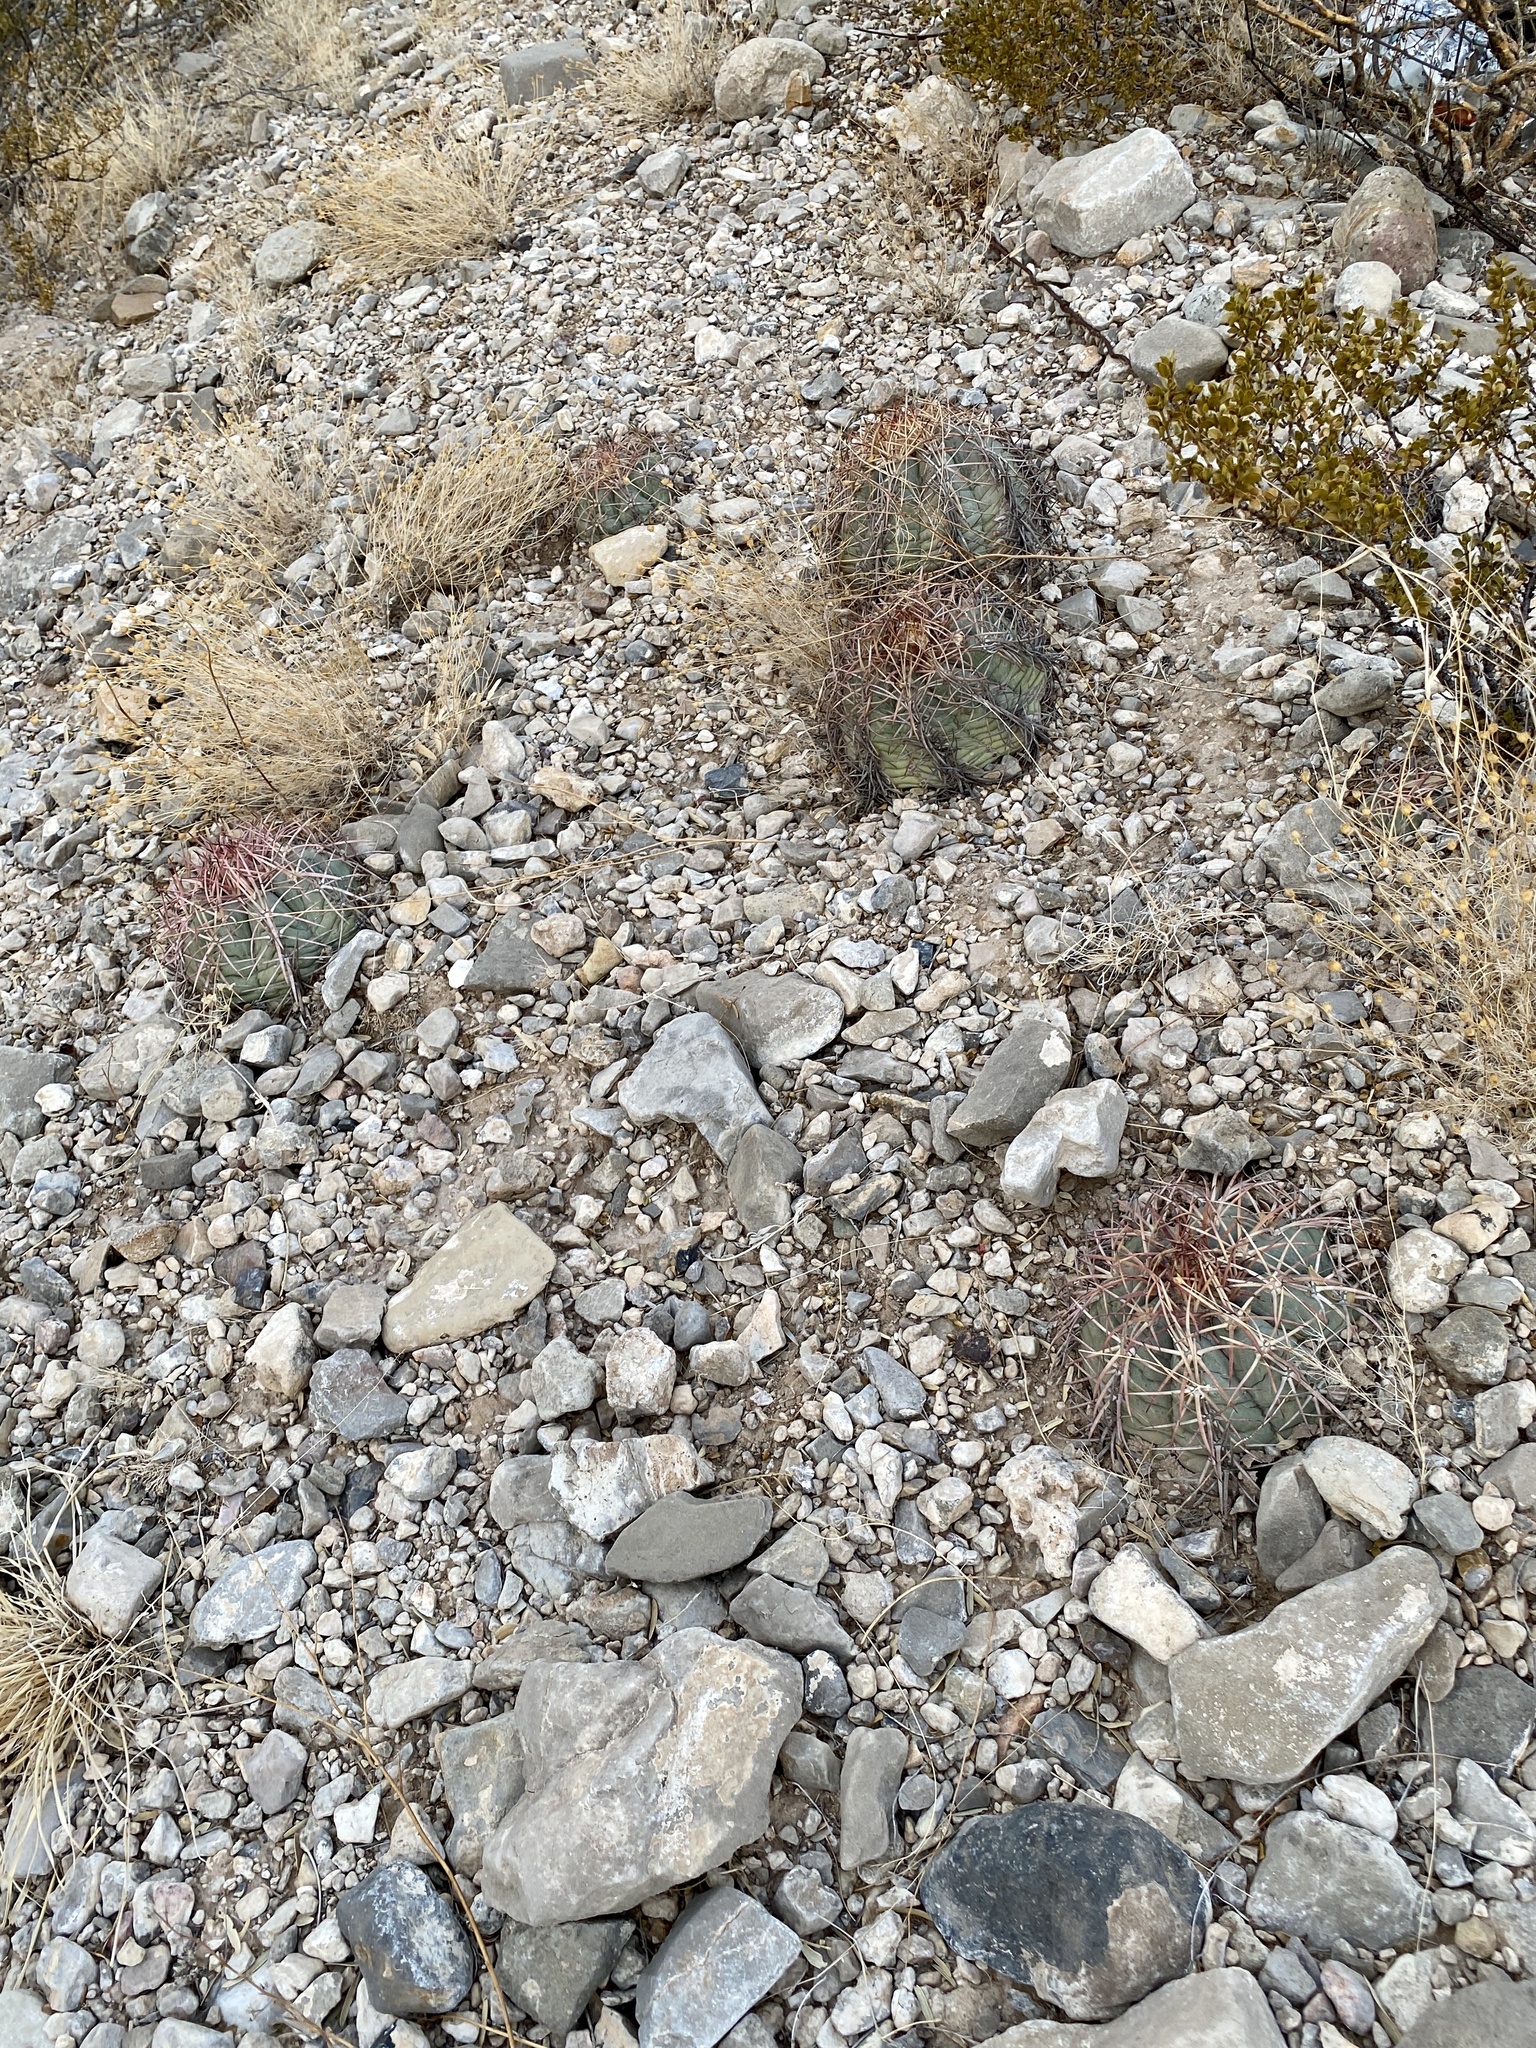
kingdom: Plantae
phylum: Tracheophyta
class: Magnoliopsida
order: Caryophyllales
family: Cactaceae
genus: Echinocactus
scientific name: Echinocactus horizonthalonius
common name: Devilshead
